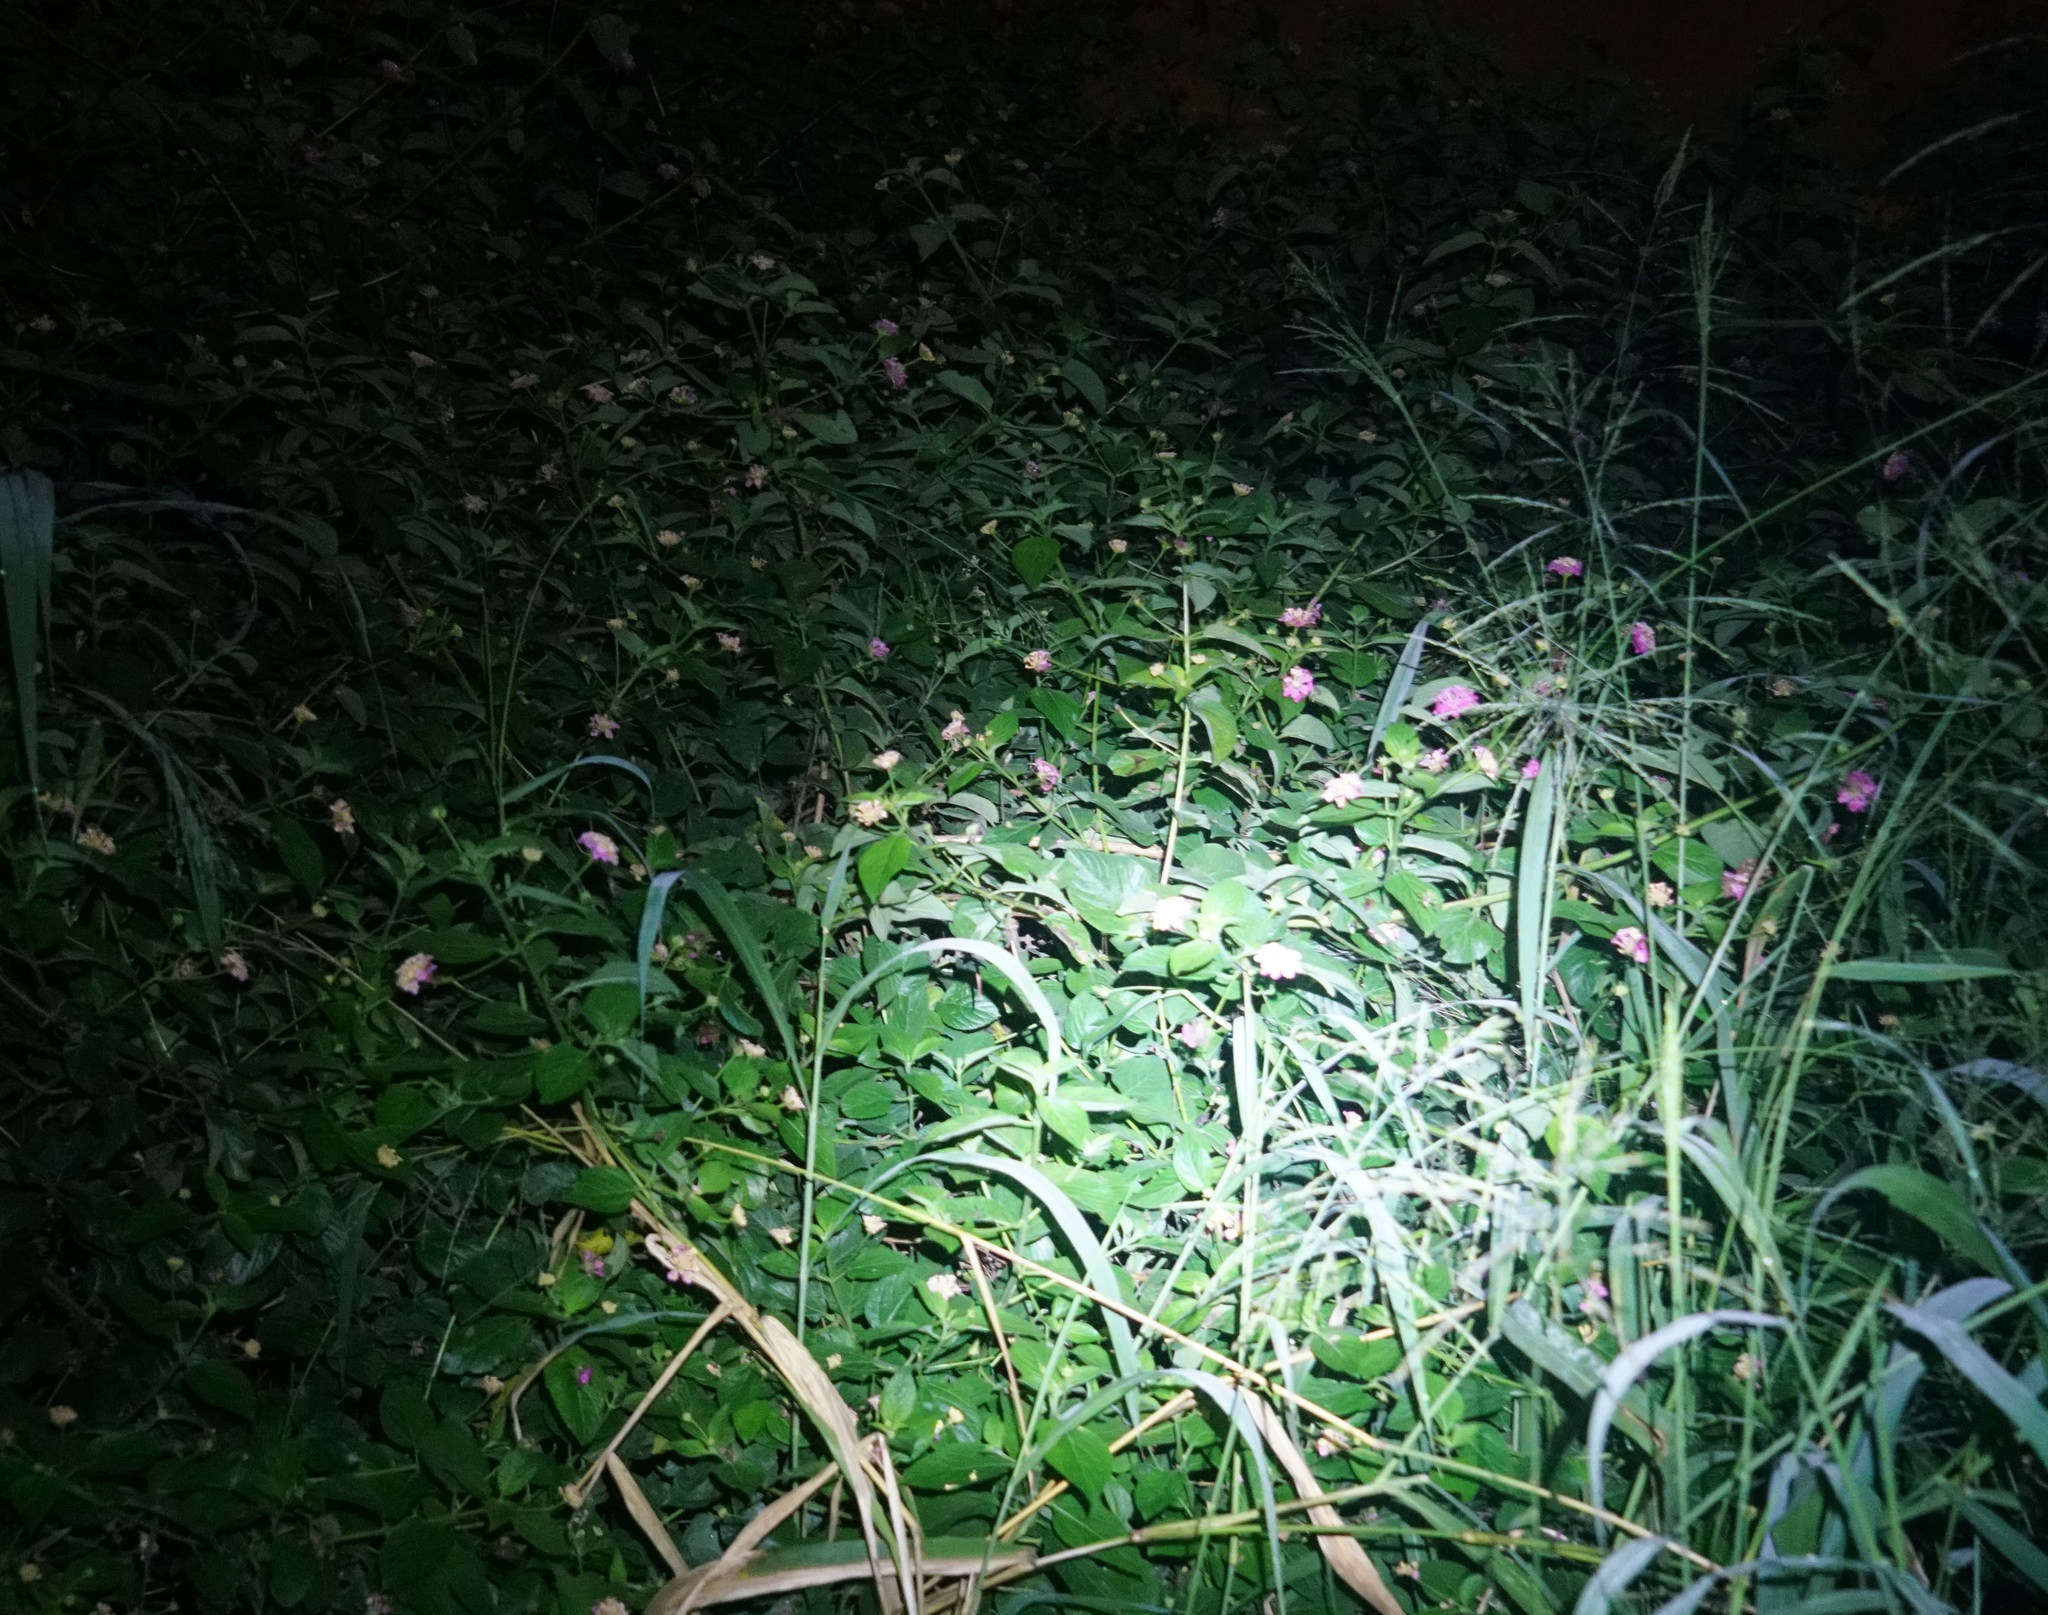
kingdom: Plantae
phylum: Tracheophyta
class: Magnoliopsida
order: Lamiales
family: Verbenaceae
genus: Lantana
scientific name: Lantana camara
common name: Lantana
